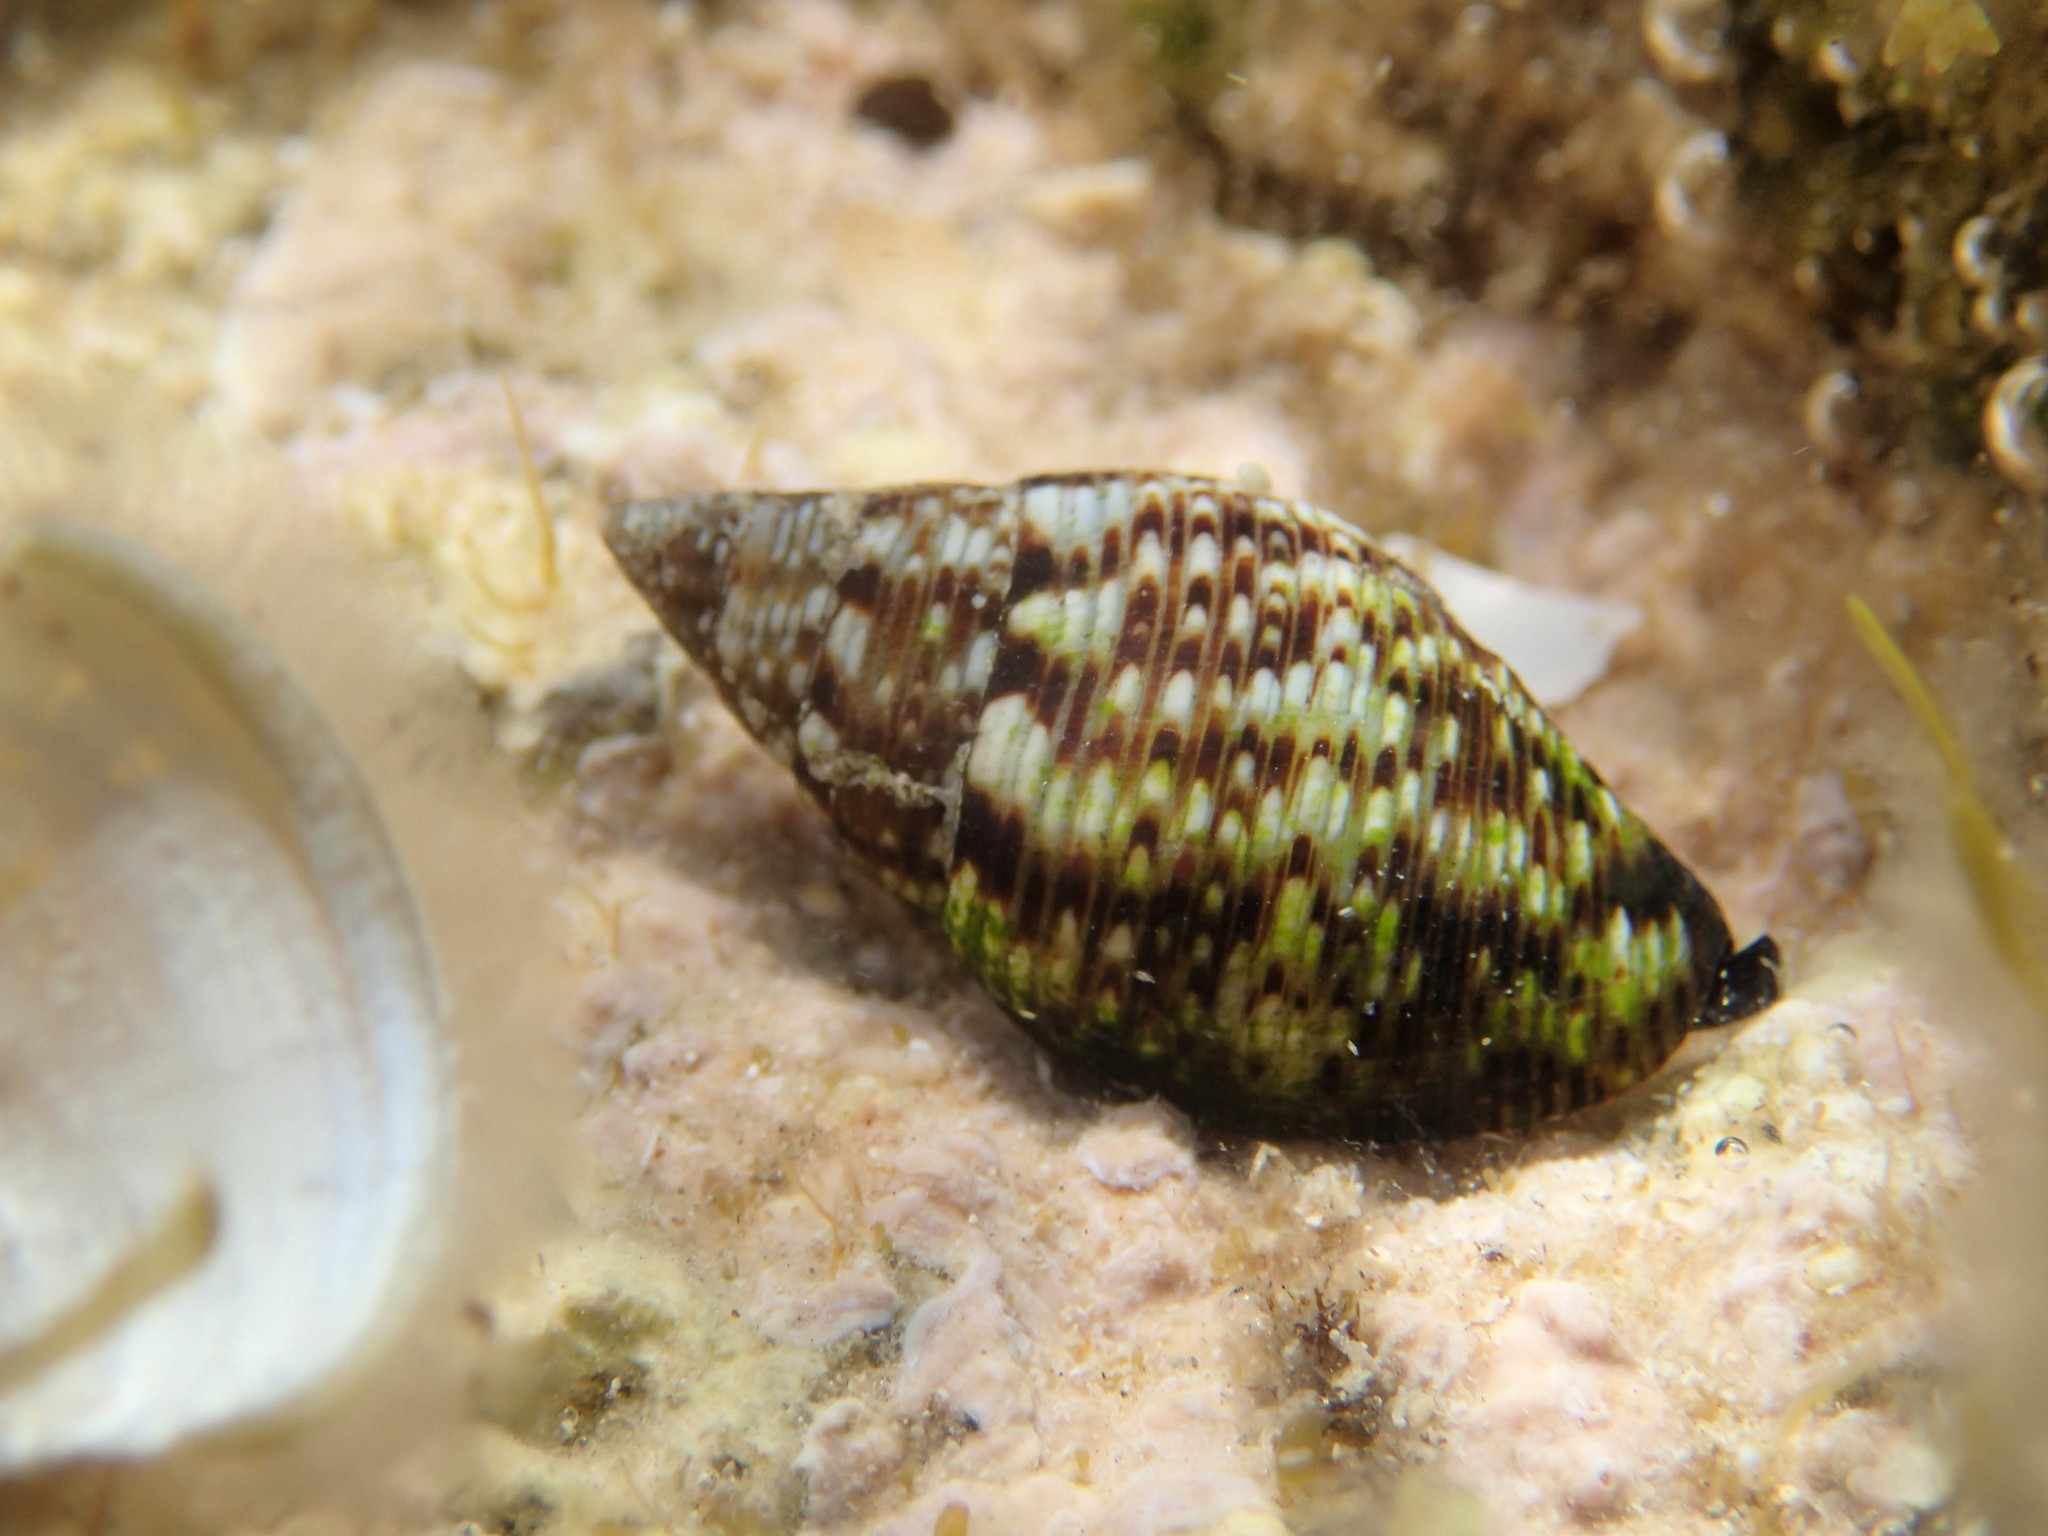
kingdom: Animalia
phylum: Mollusca
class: Gastropoda
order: Neogastropoda
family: Pisaniidae
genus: Pisania
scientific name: Pisania striata
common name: Spotted pisania
